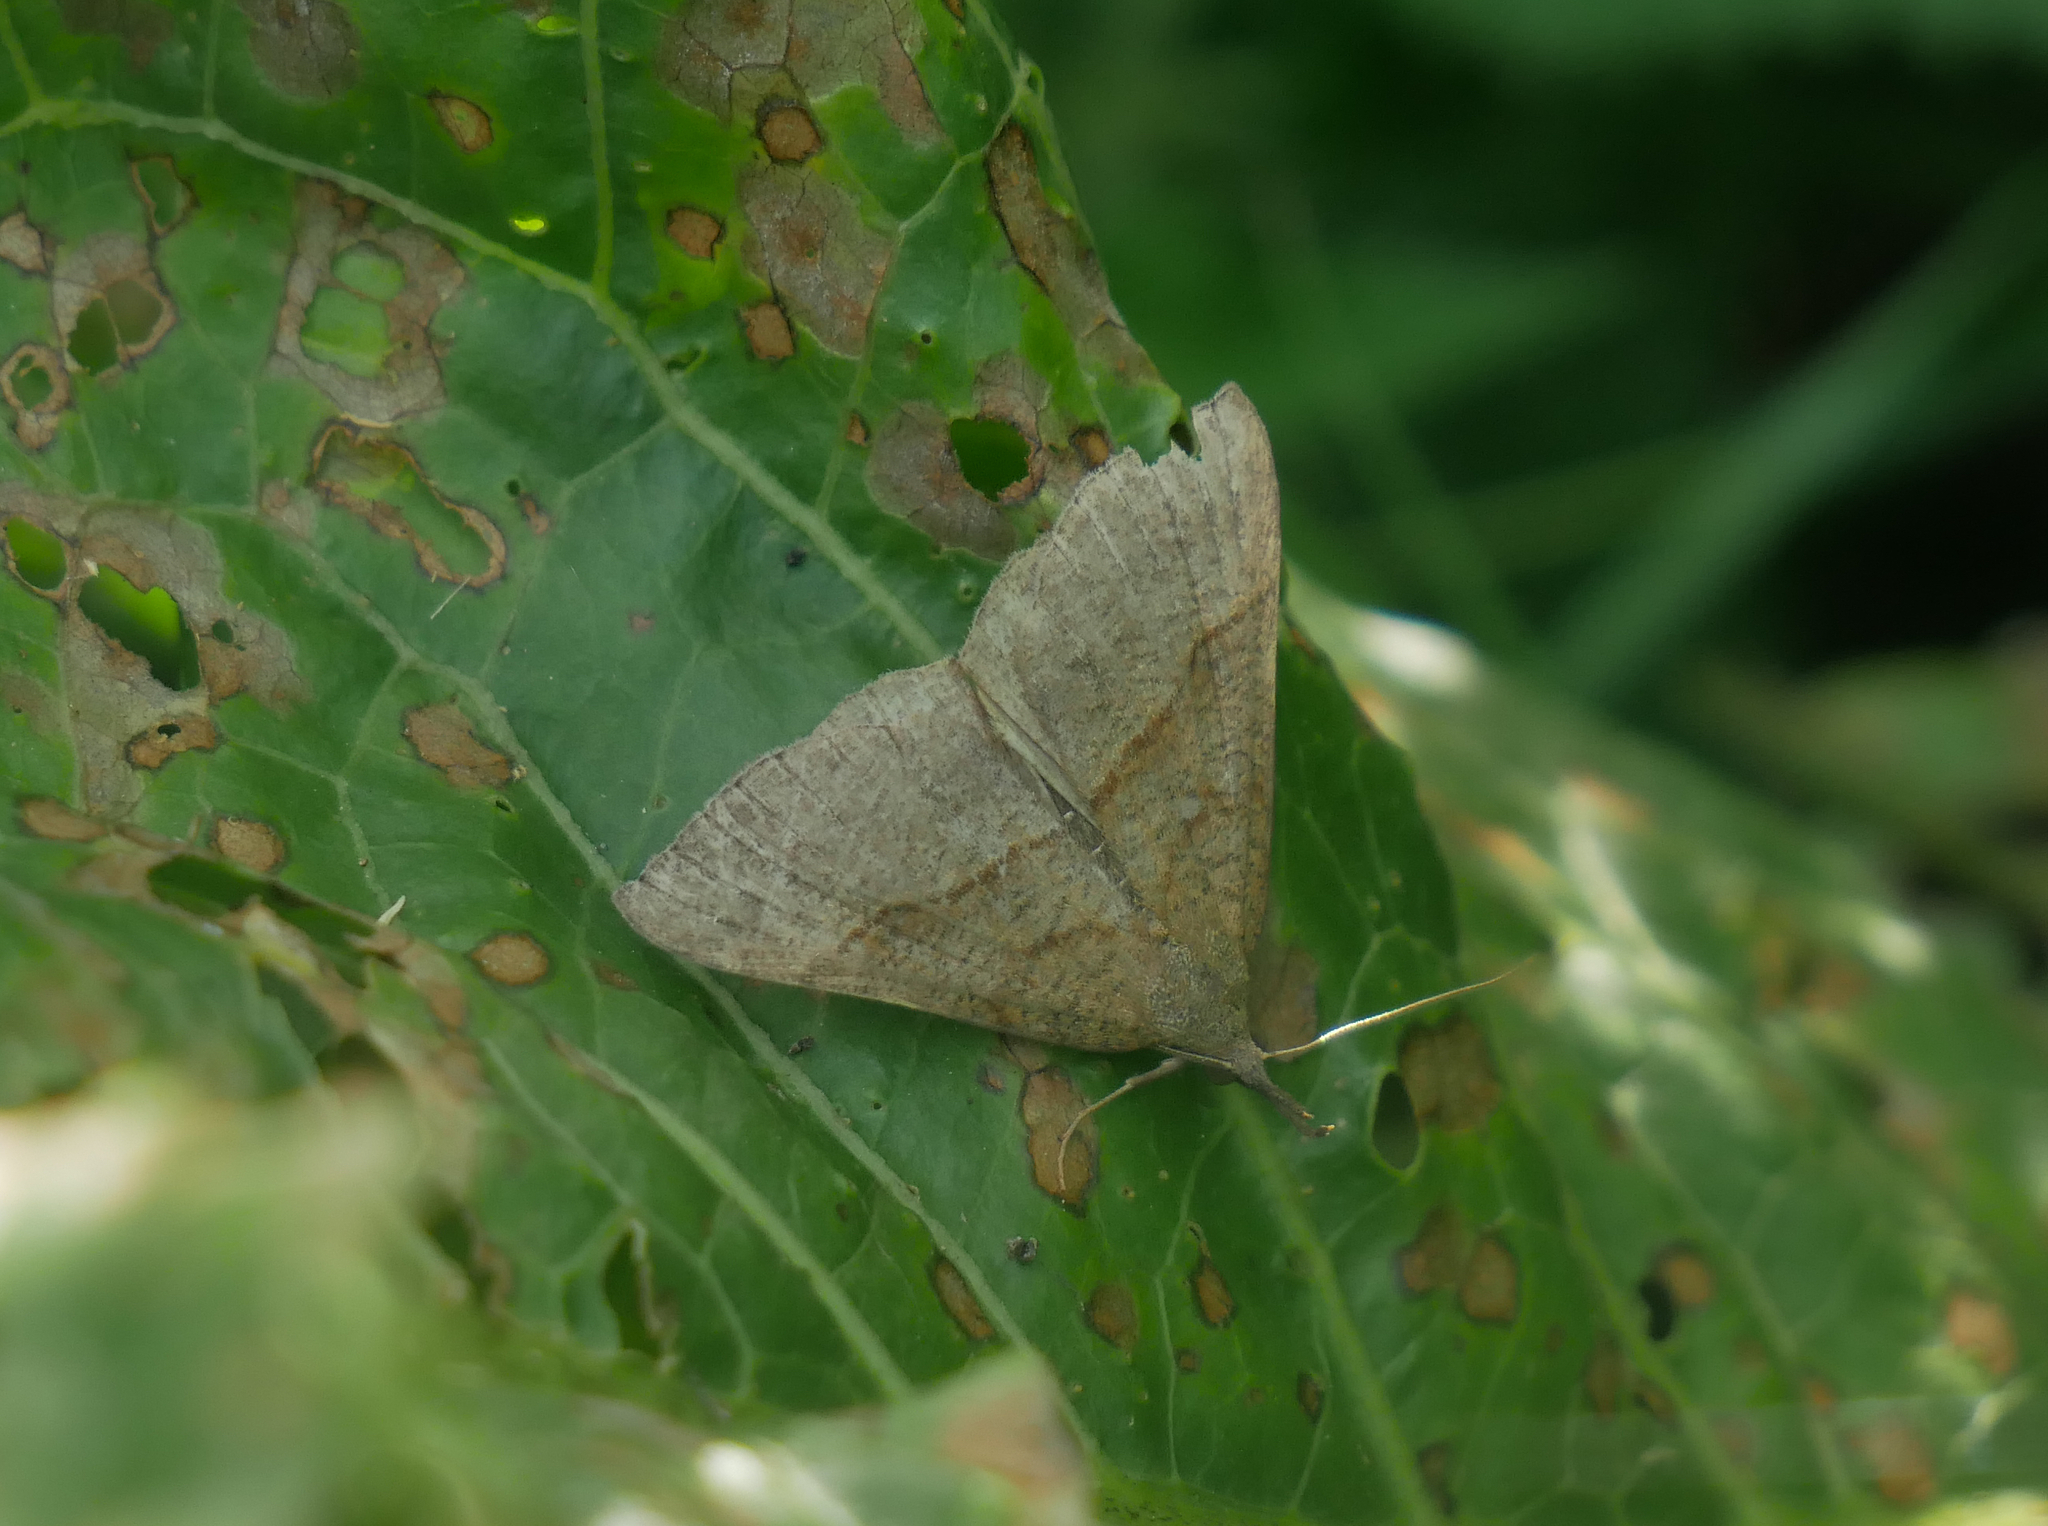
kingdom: Animalia
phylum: Arthropoda
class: Insecta
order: Lepidoptera
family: Erebidae
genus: Hypena
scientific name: Hypena proboscidalis
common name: Snout
